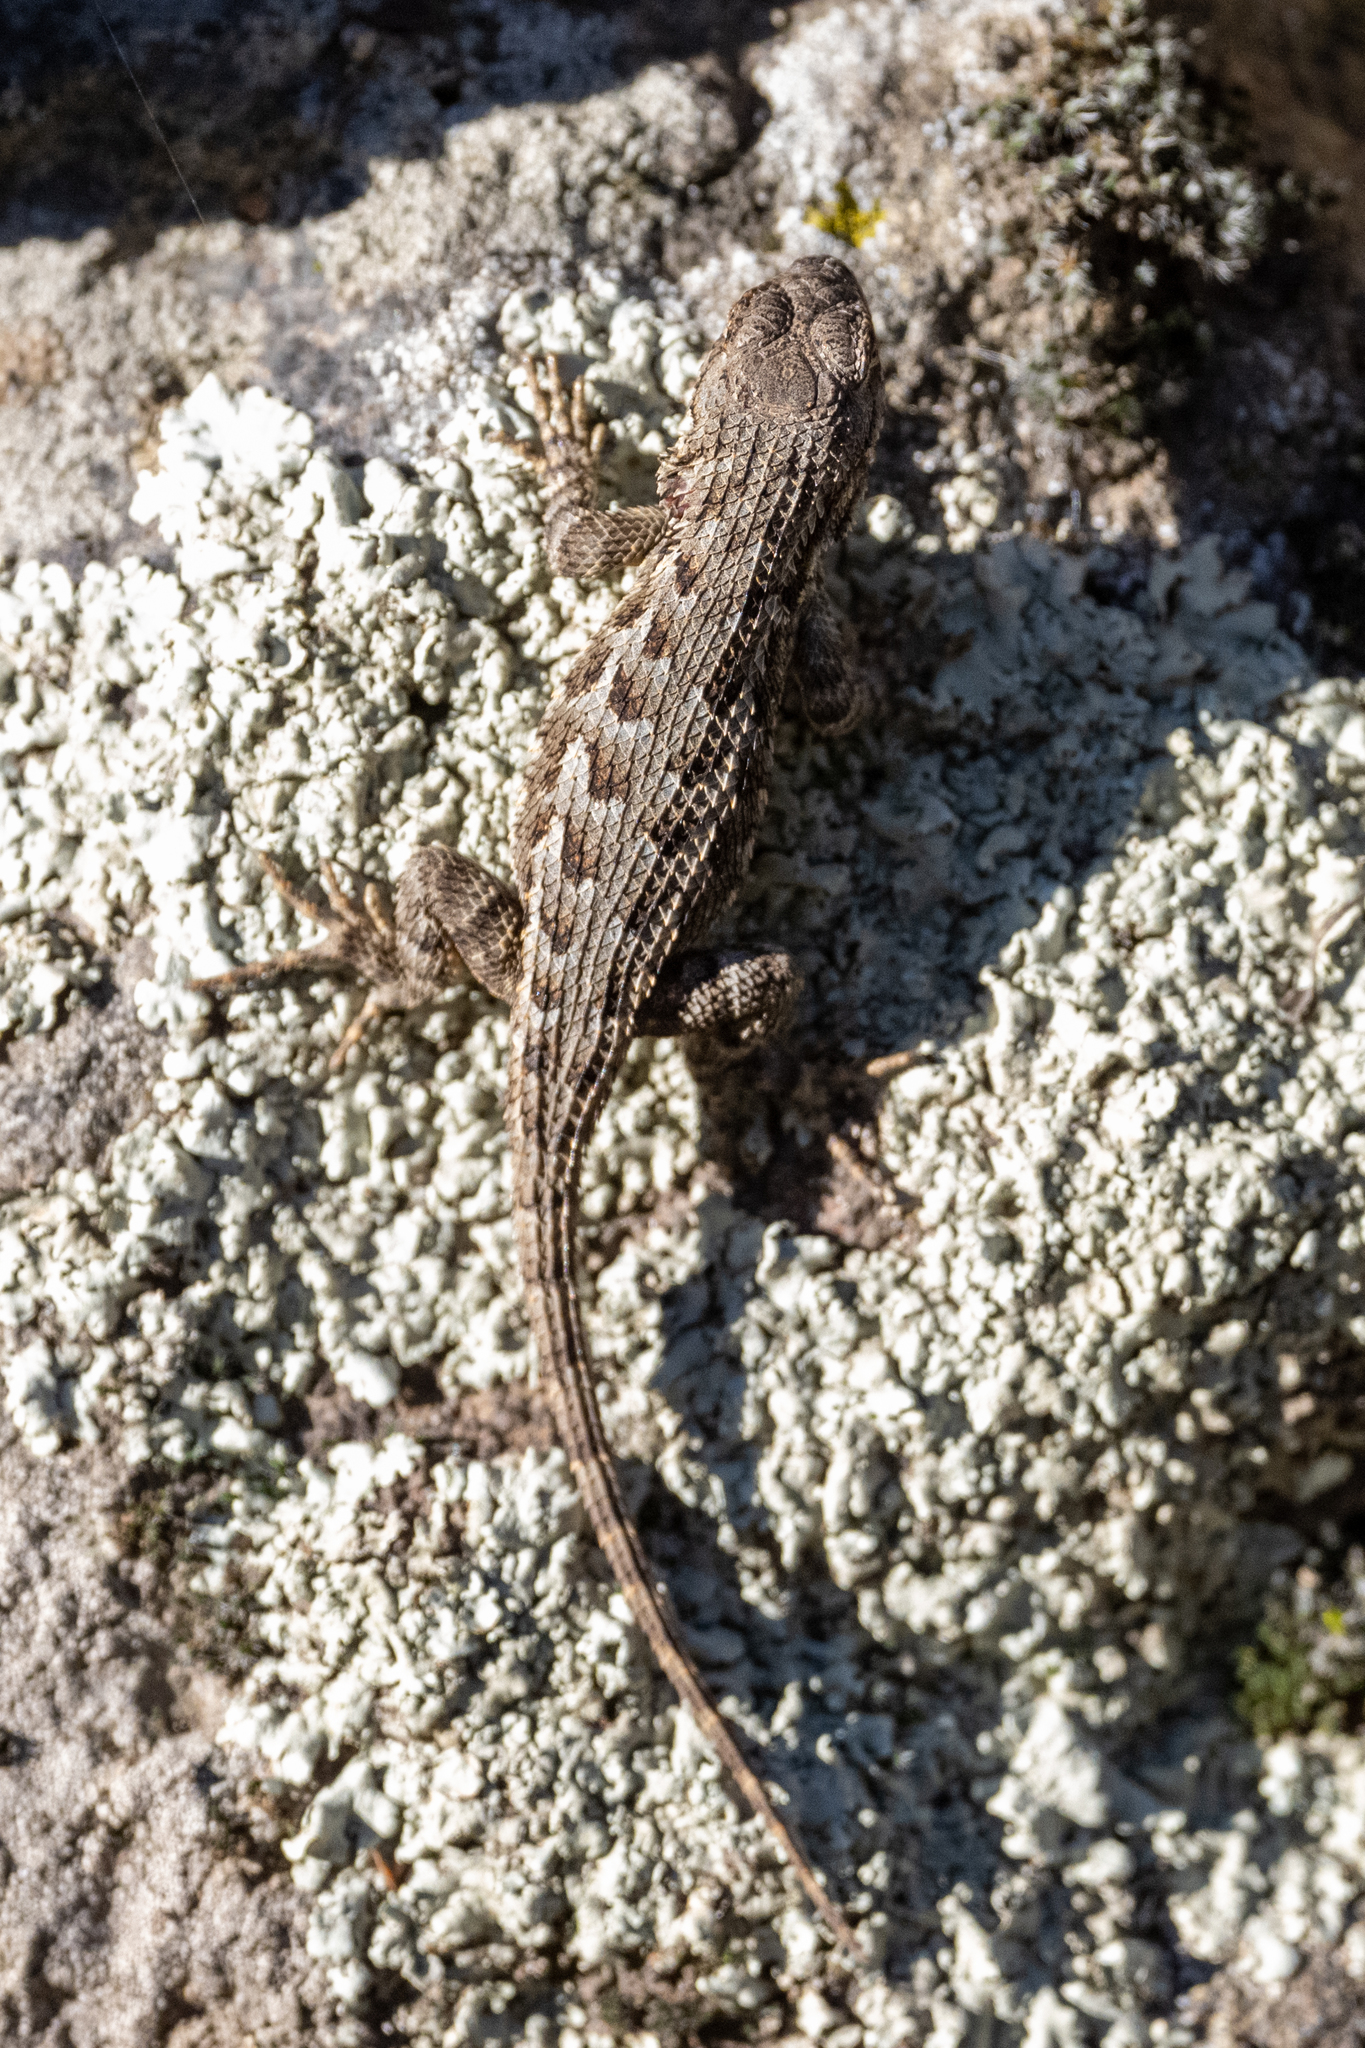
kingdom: Animalia
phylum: Chordata
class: Squamata
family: Phrynosomatidae
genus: Sceloporus
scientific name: Sceloporus occidentalis
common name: Western fence lizard
